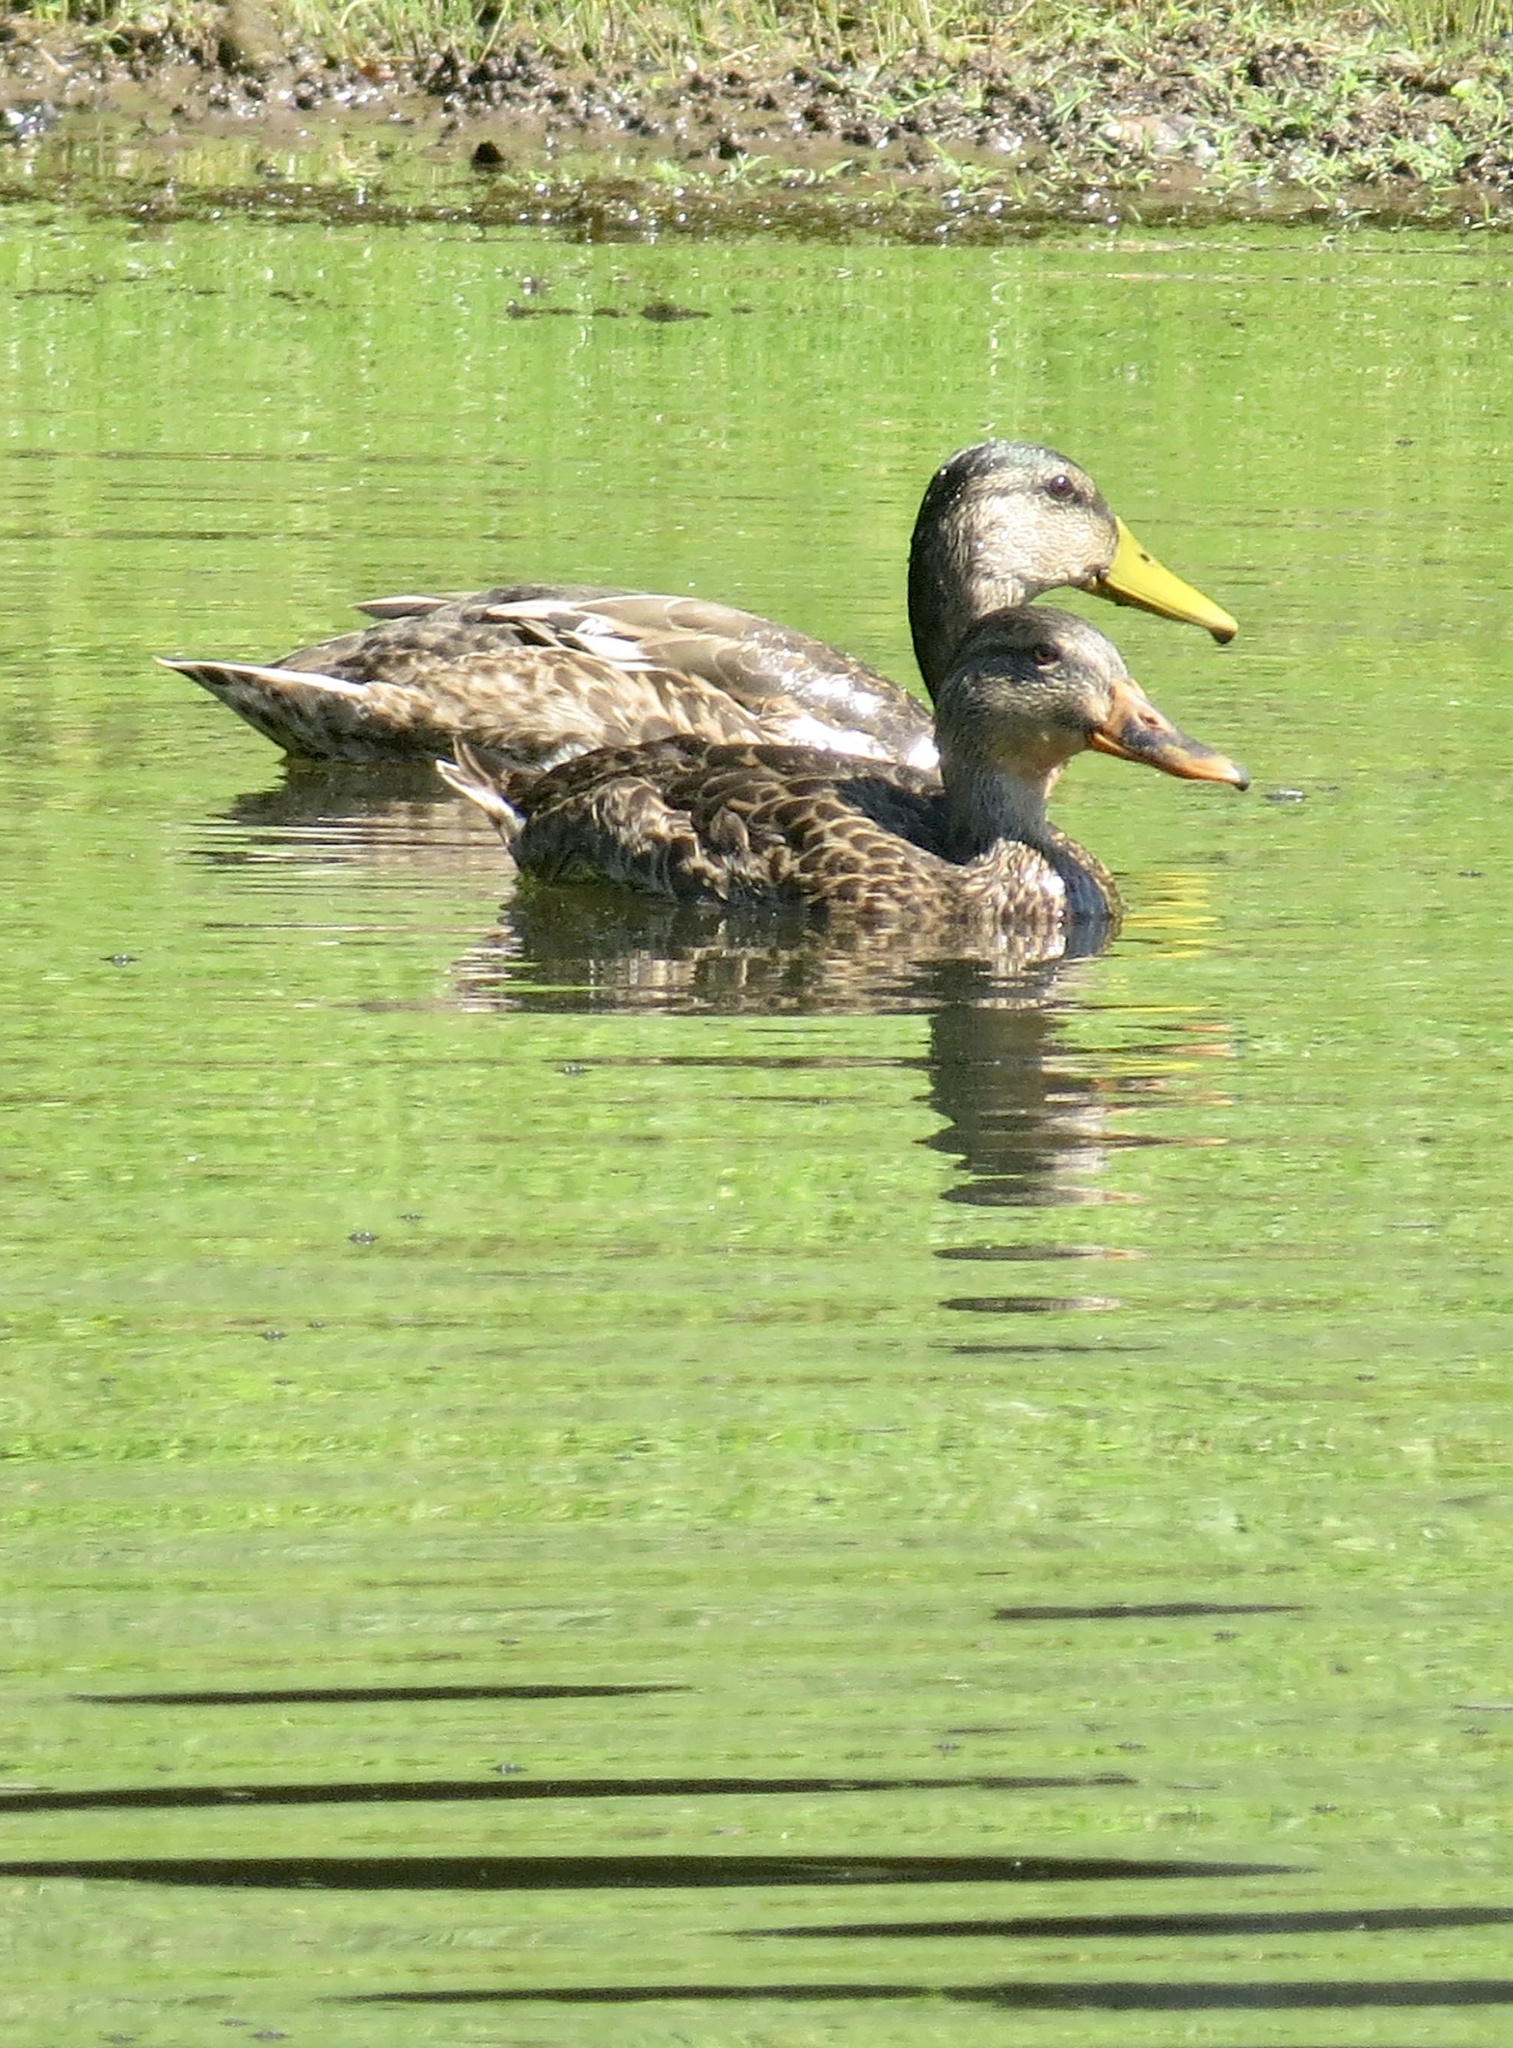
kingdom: Animalia
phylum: Chordata
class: Aves
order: Anseriformes
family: Anatidae
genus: Anas
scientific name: Anas platyrhynchos
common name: Mallard
